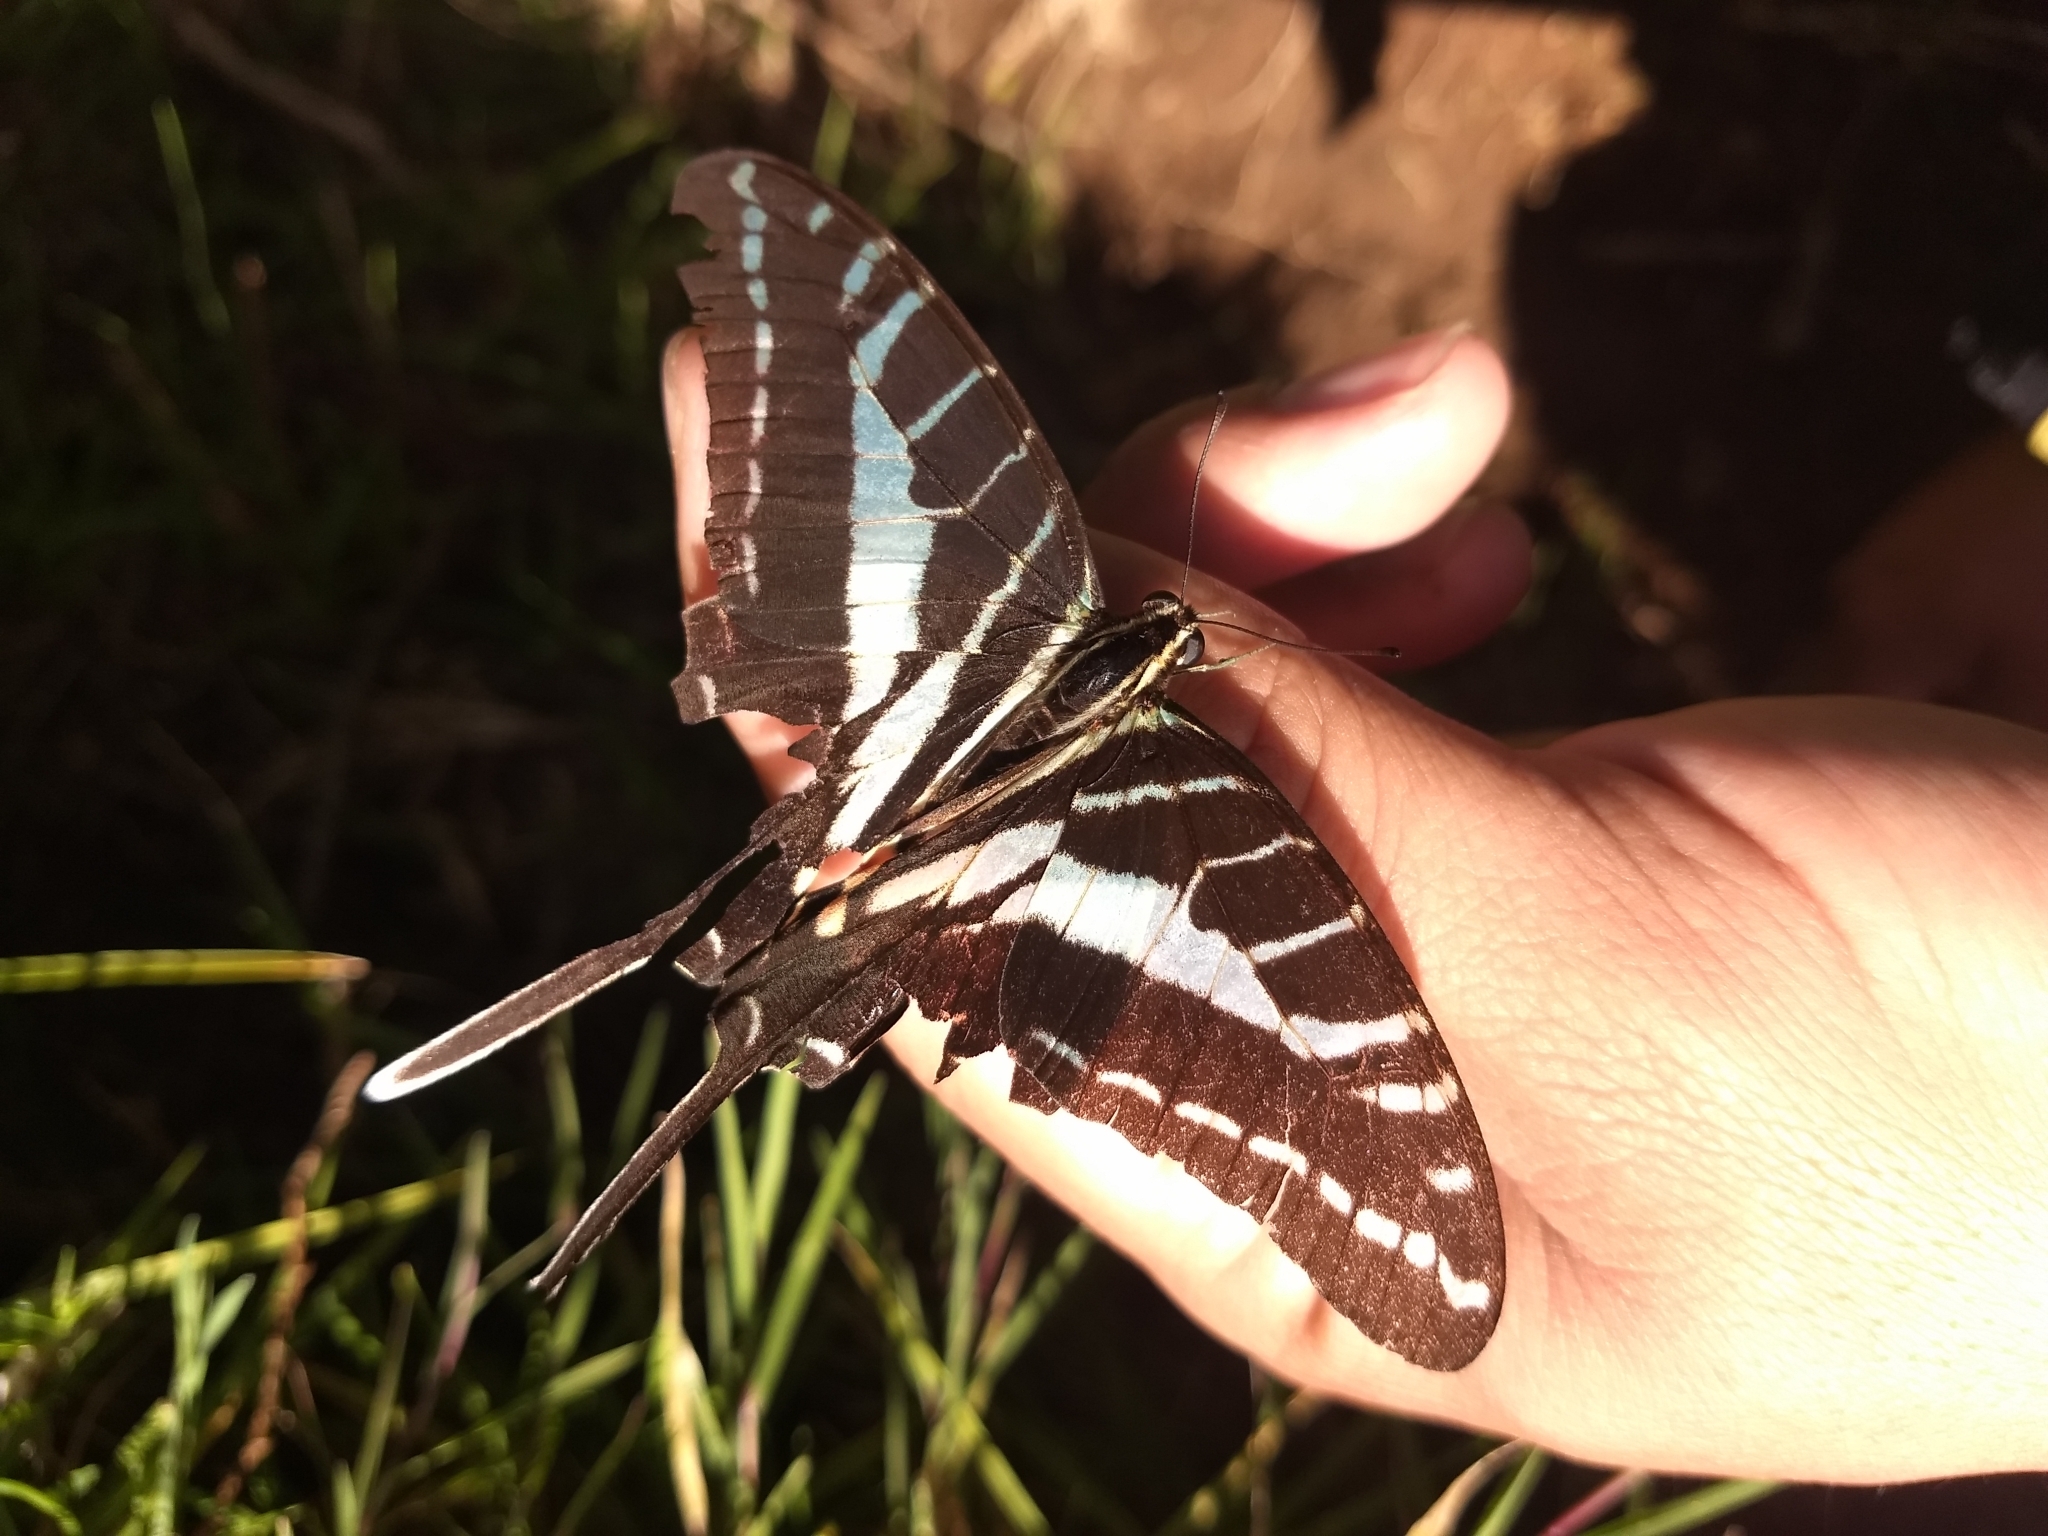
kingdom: Animalia
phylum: Arthropoda
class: Insecta
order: Lepidoptera
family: Papilionidae
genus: Protographium
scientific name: Protographium philolaus
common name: Dark zebra swallowtail
